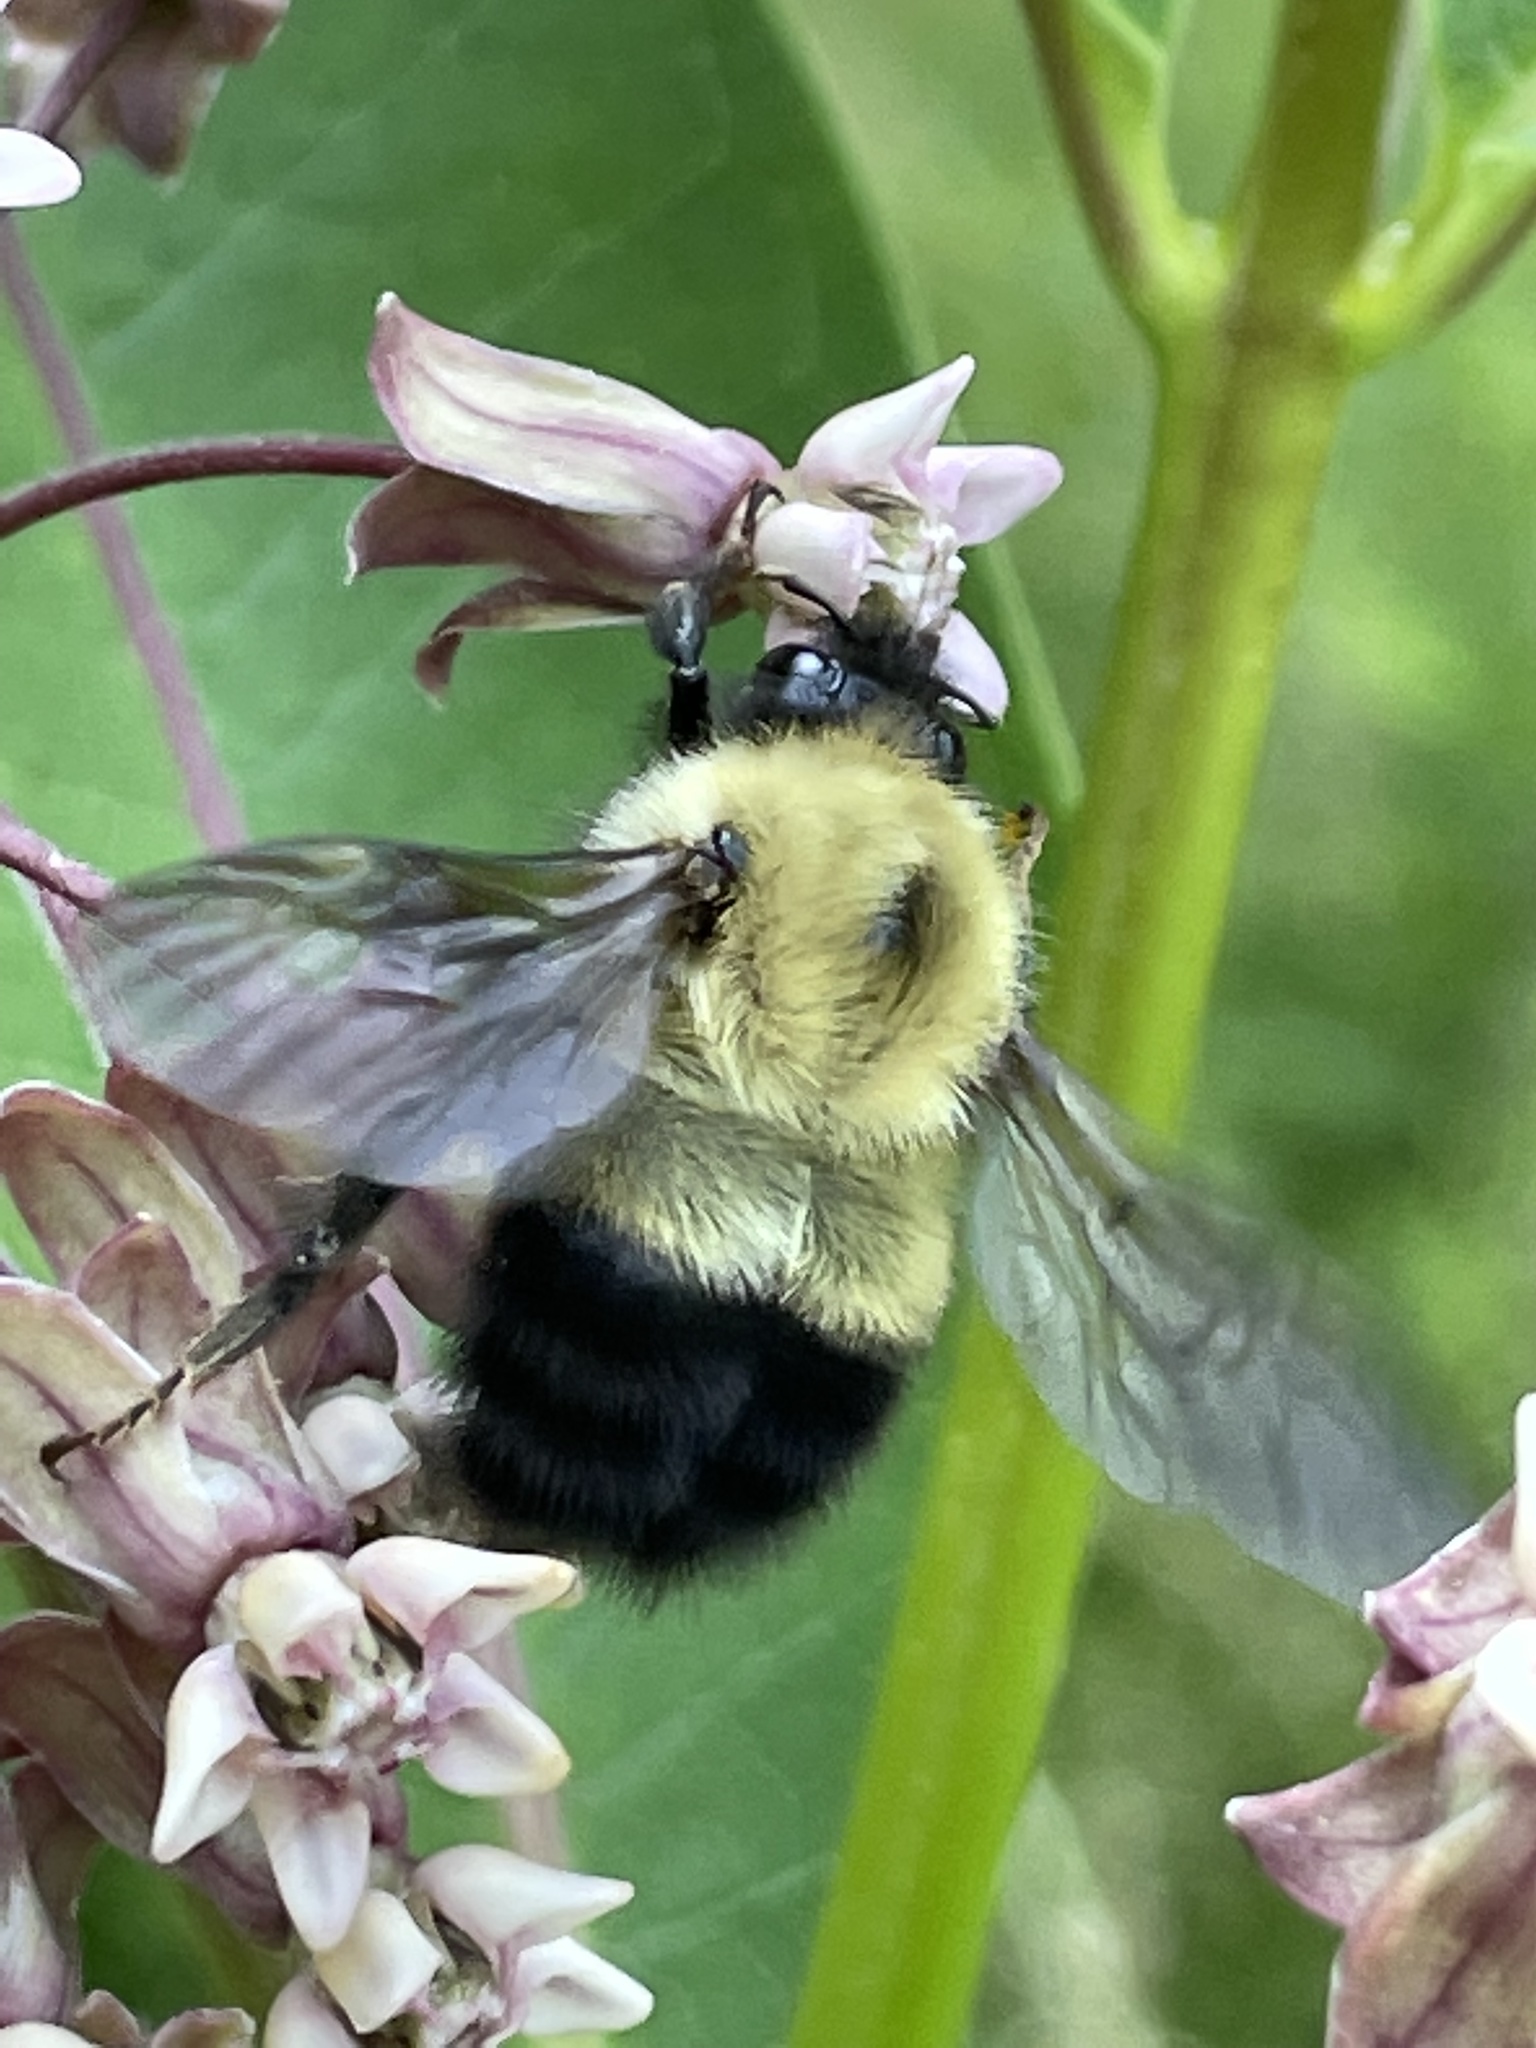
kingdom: Animalia
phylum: Arthropoda
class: Insecta
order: Hymenoptera
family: Apidae
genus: Pyrobombus
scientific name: Pyrobombus
